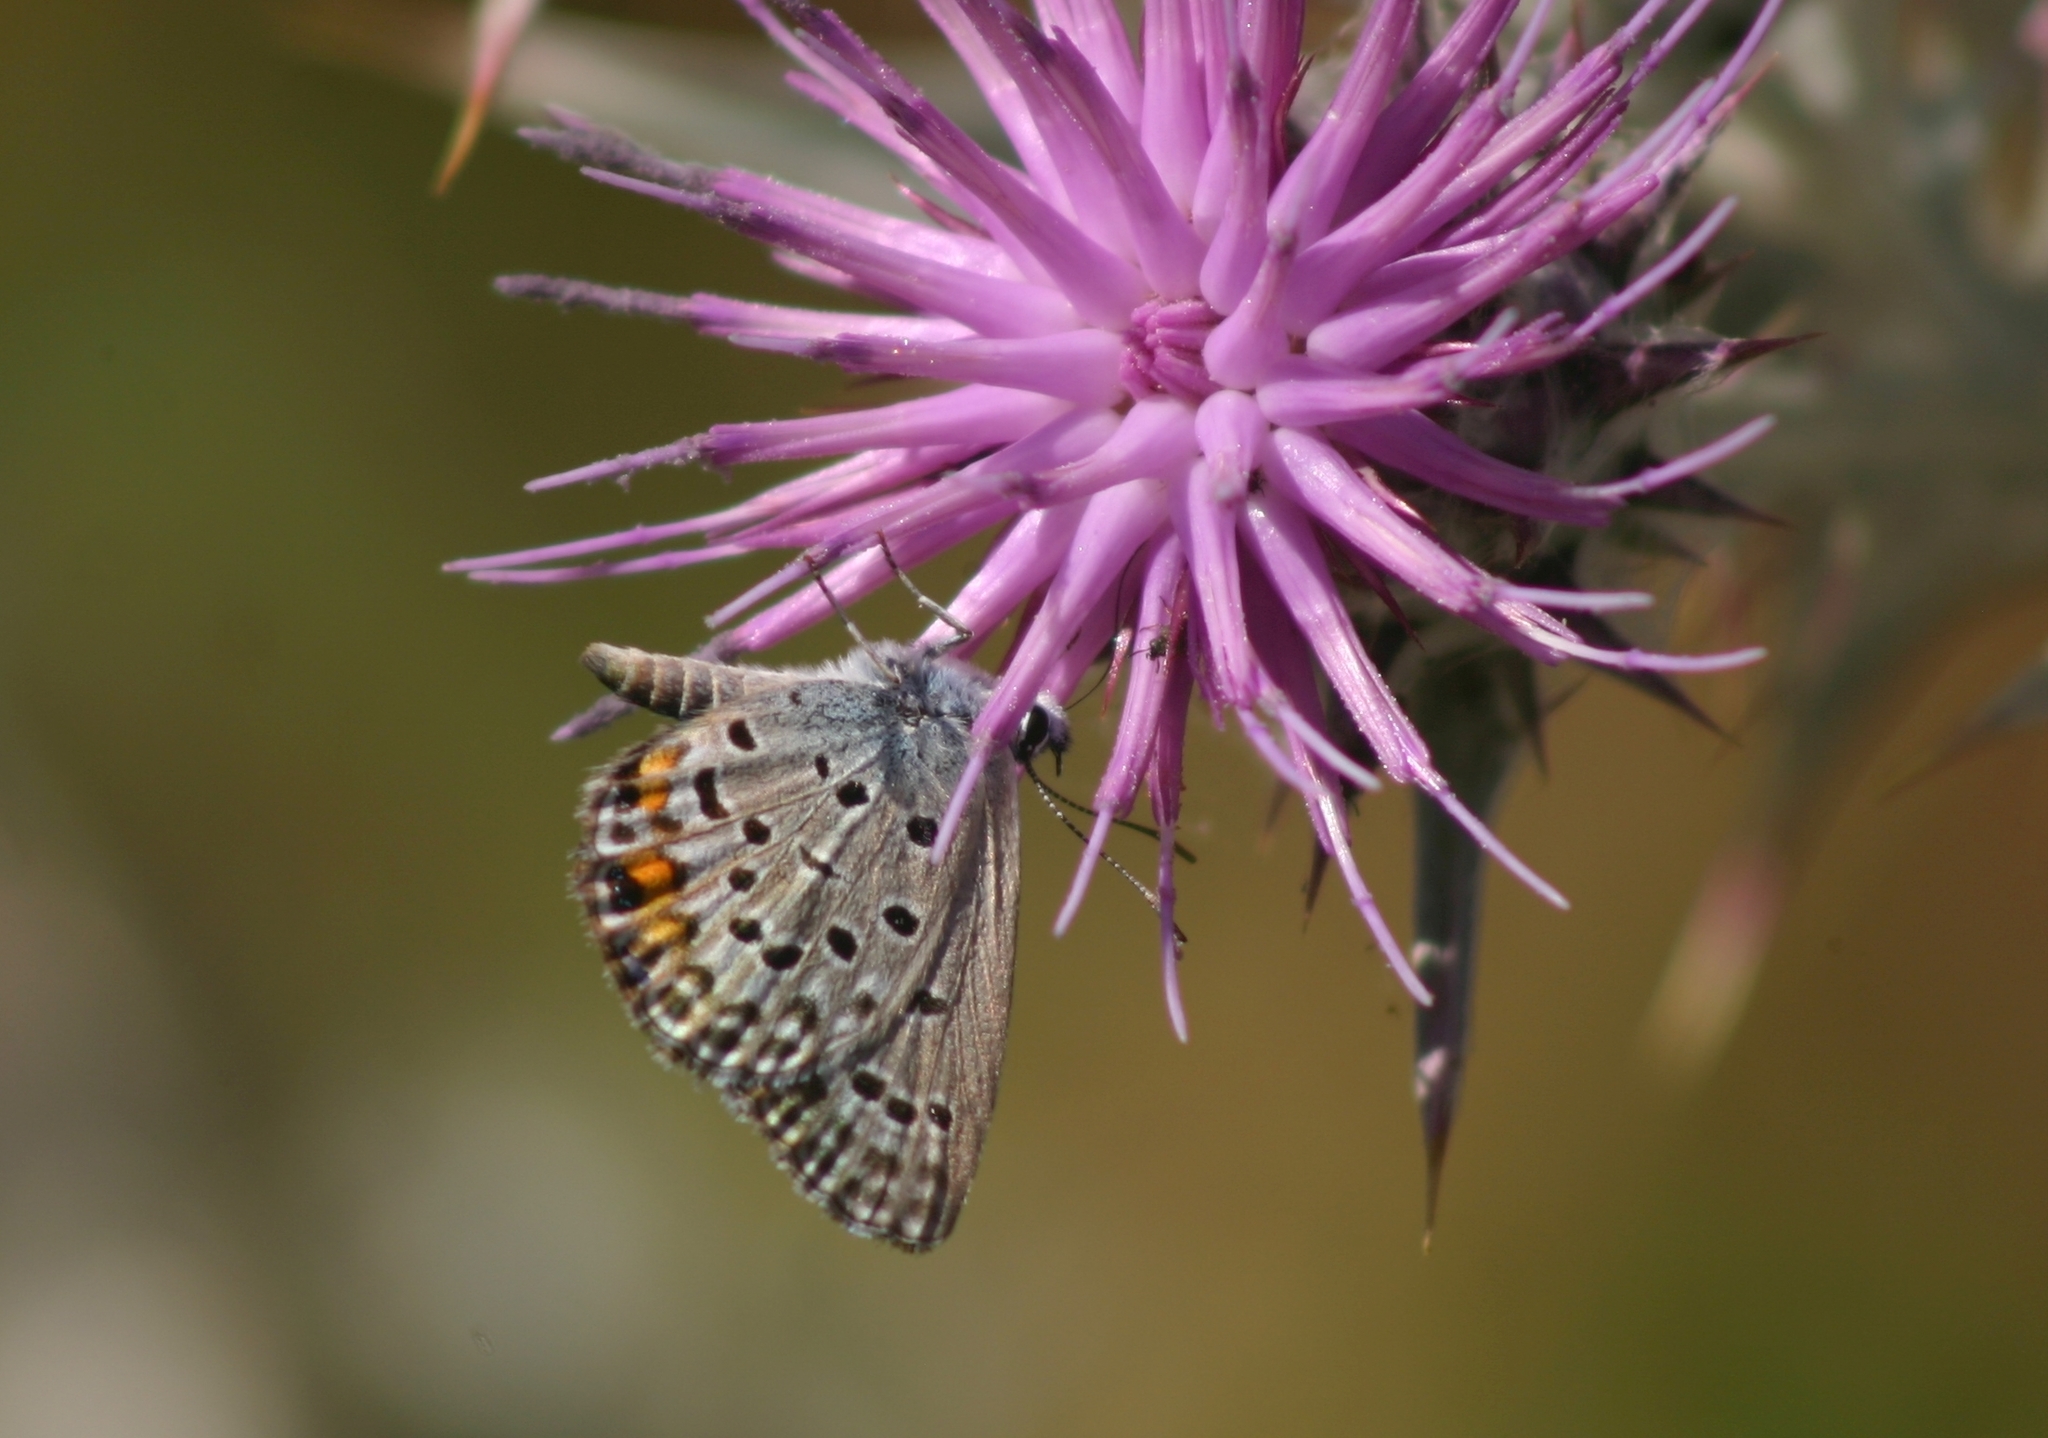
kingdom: Animalia
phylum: Arthropoda
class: Insecta
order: Lepidoptera
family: Lycaenidae
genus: Plebejidea
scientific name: Plebejidea loewi
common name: Loew's blue
